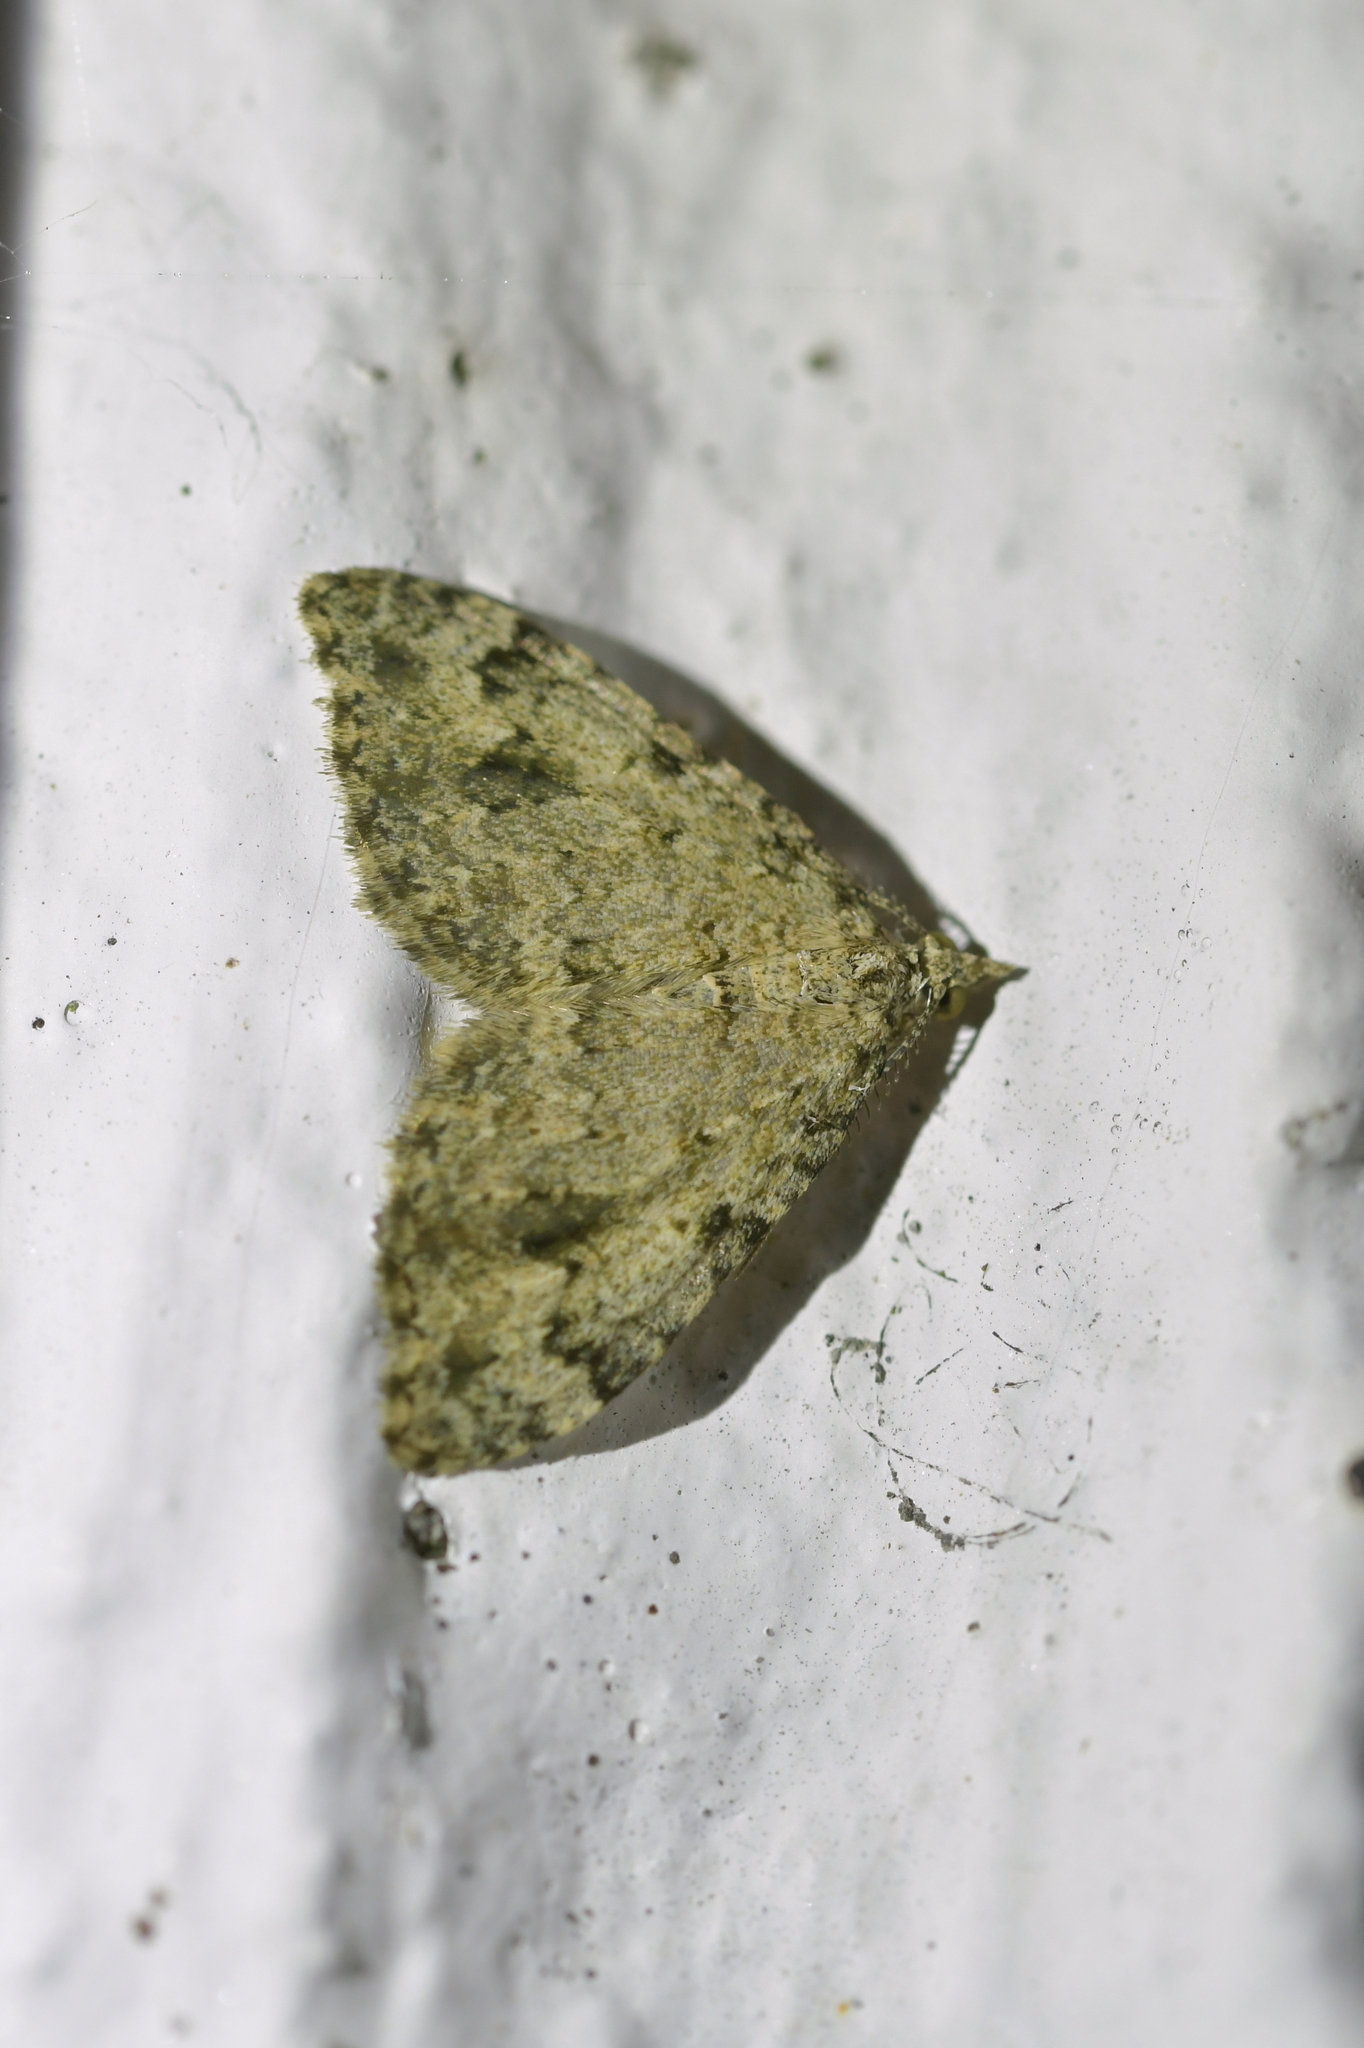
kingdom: Animalia
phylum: Arthropoda
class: Insecta
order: Lepidoptera
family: Geometridae
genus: Helastia
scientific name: Helastia cinerearia
